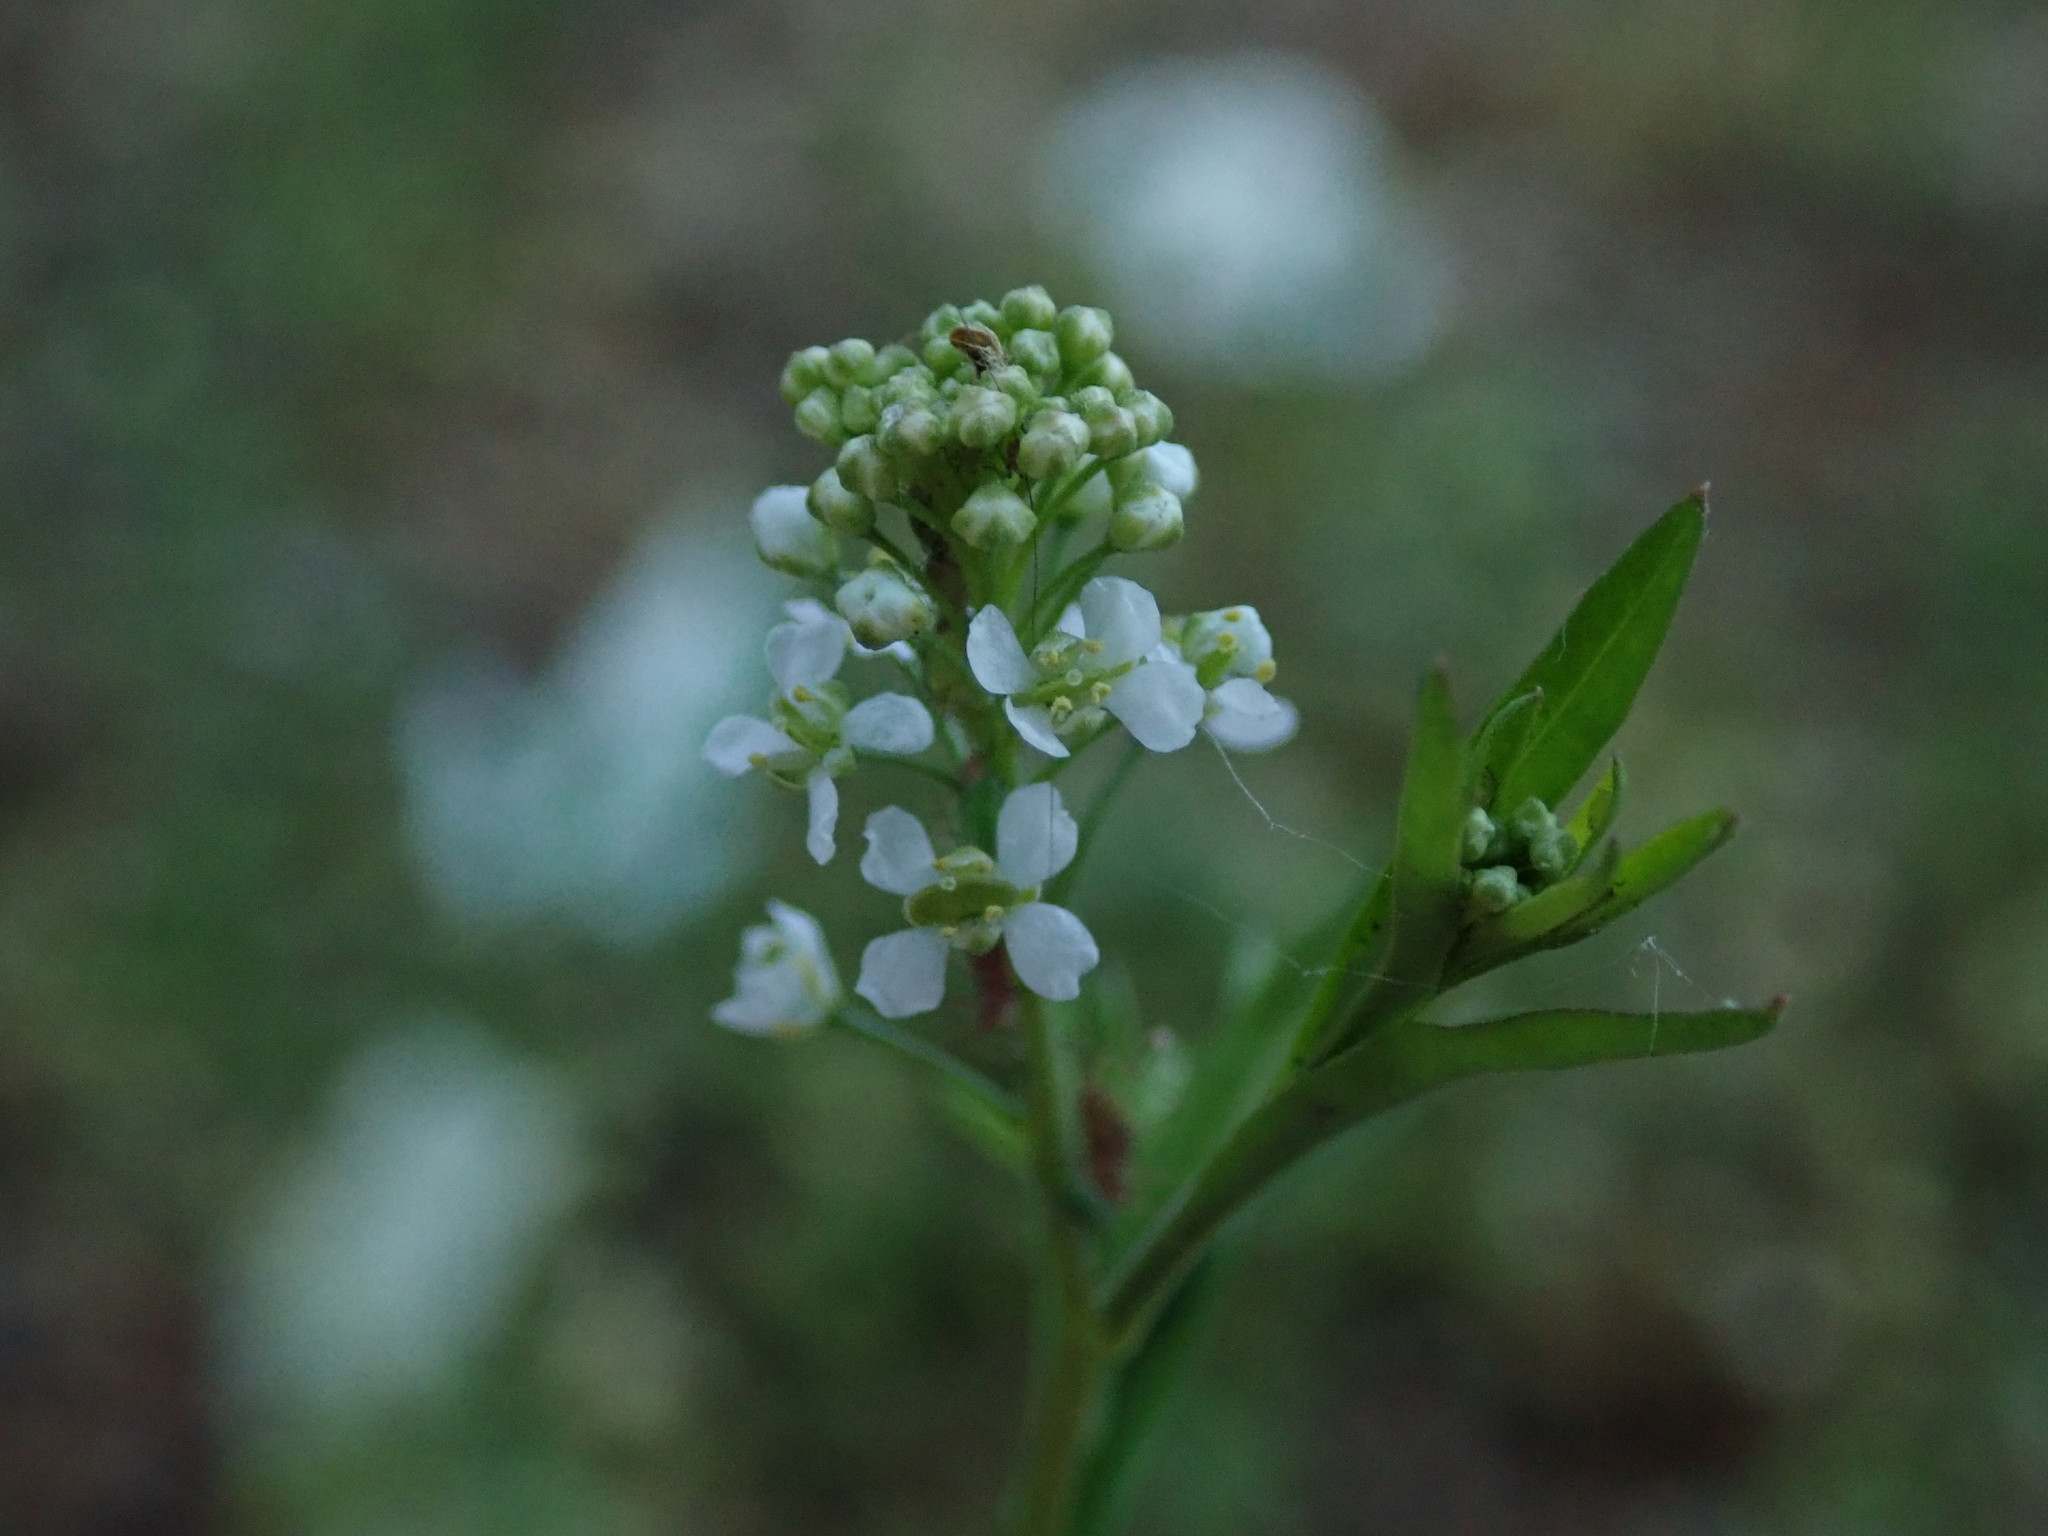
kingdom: Plantae
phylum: Tracheophyta
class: Magnoliopsida
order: Brassicales
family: Brassicaceae
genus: Lepidium
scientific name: Lepidium virginicum
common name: Least pepperwort
